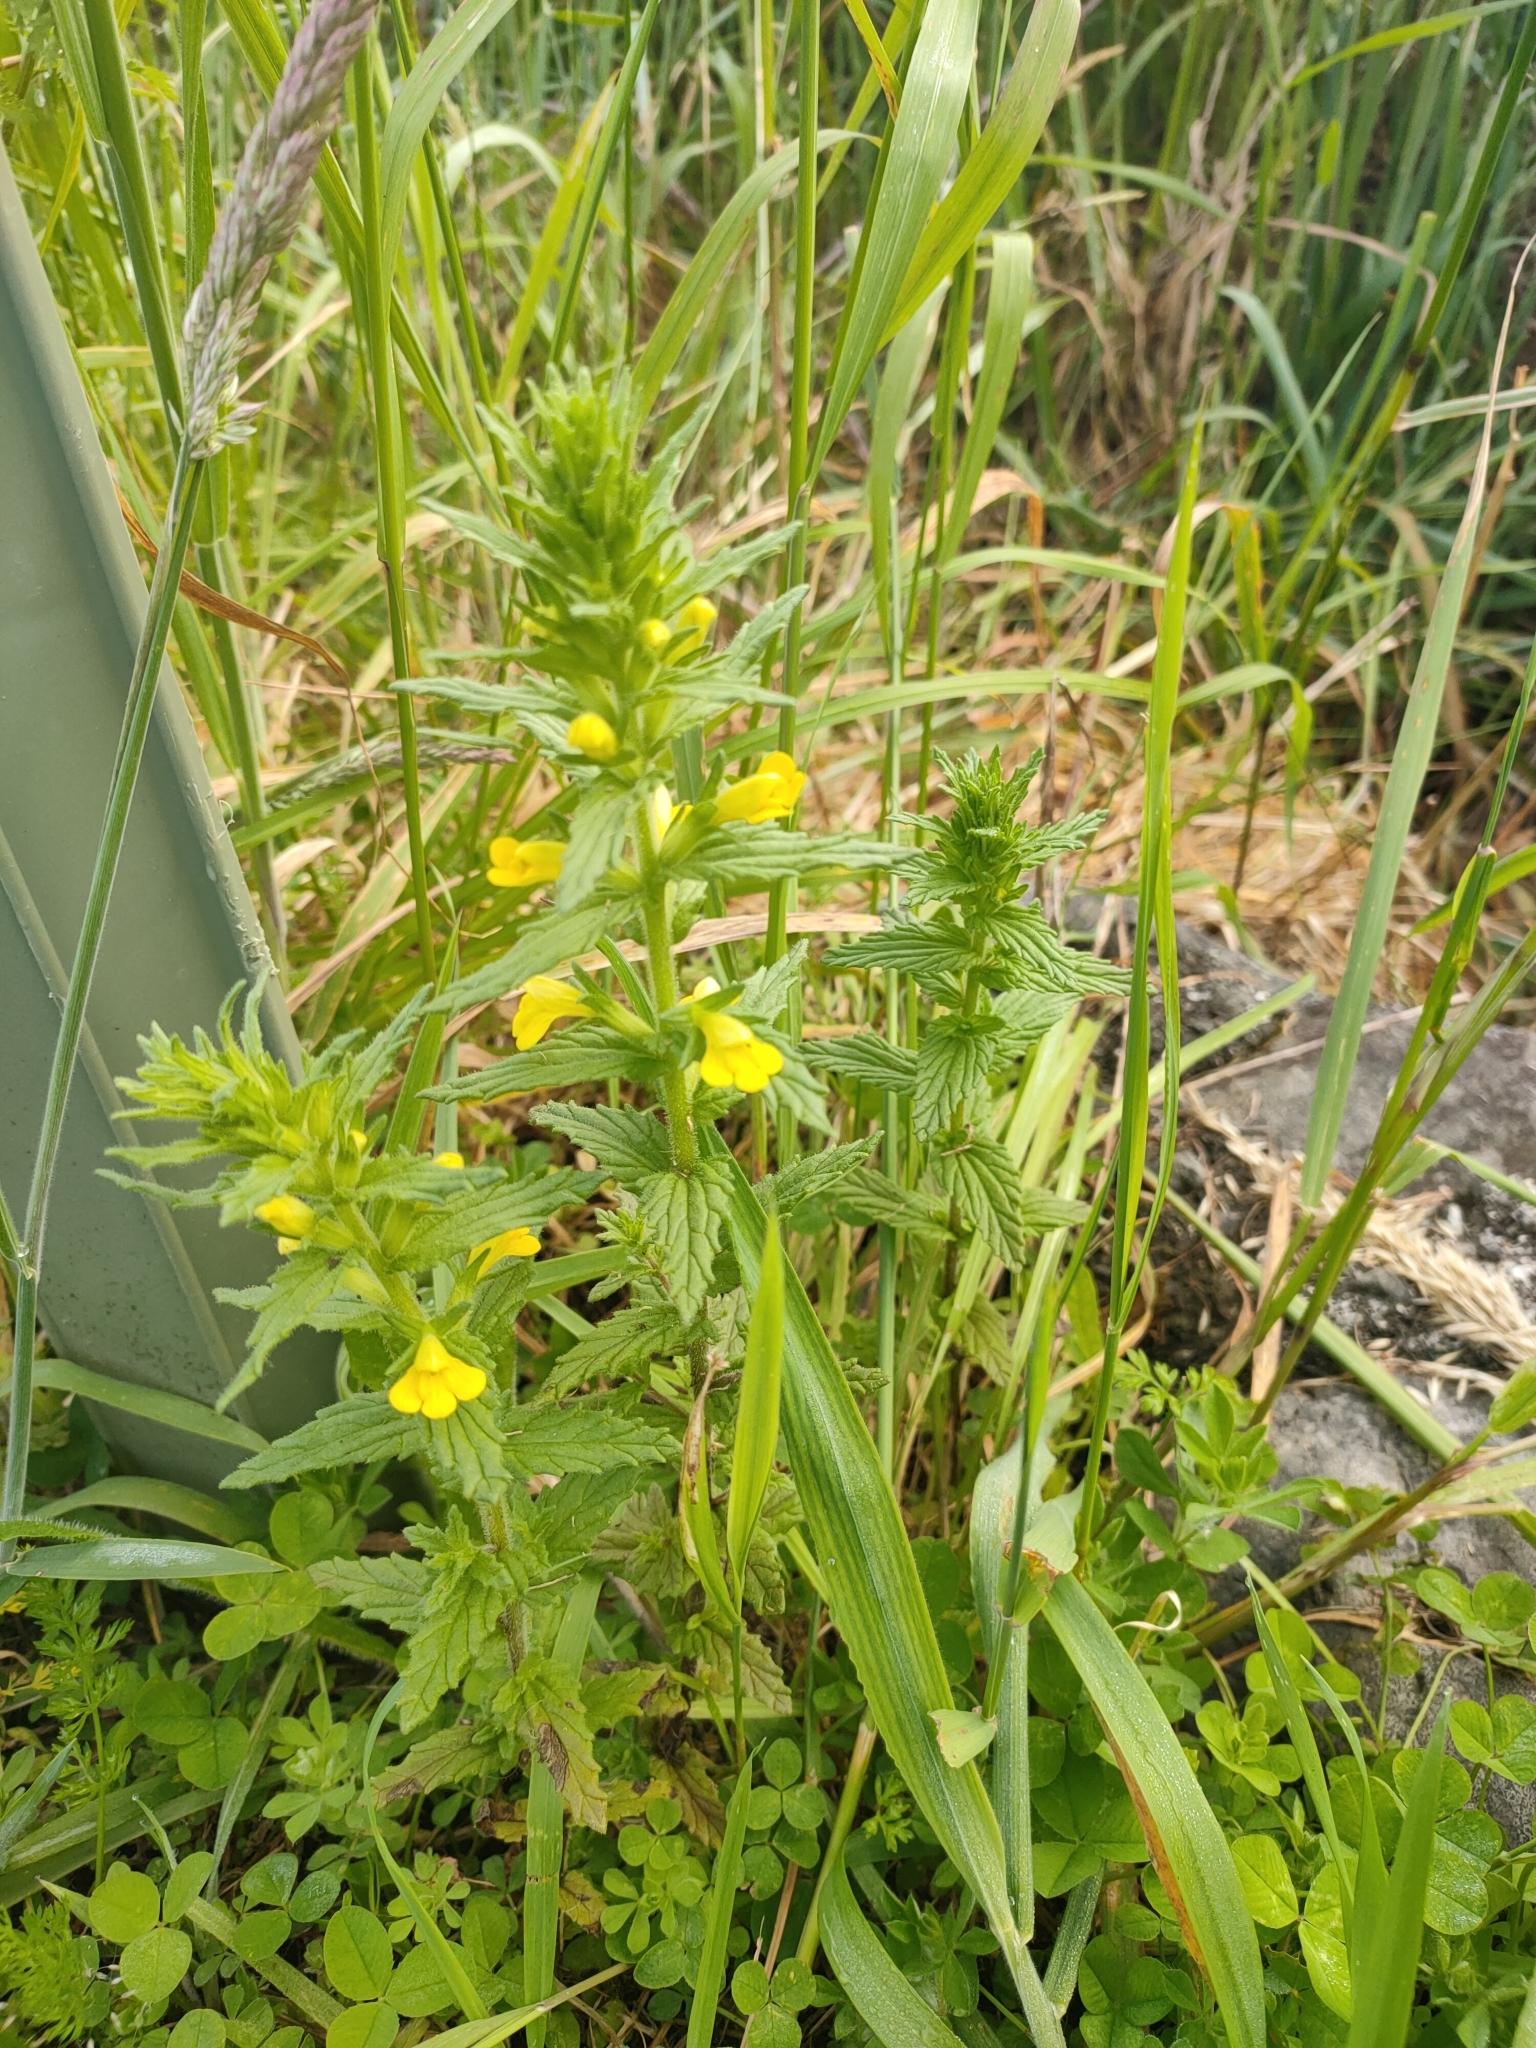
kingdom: Plantae
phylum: Tracheophyta
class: Magnoliopsida
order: Lamiales
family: Orobanchaceae
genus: Bellardia
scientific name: Bellardia viscosa
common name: Sticky parentucellia
